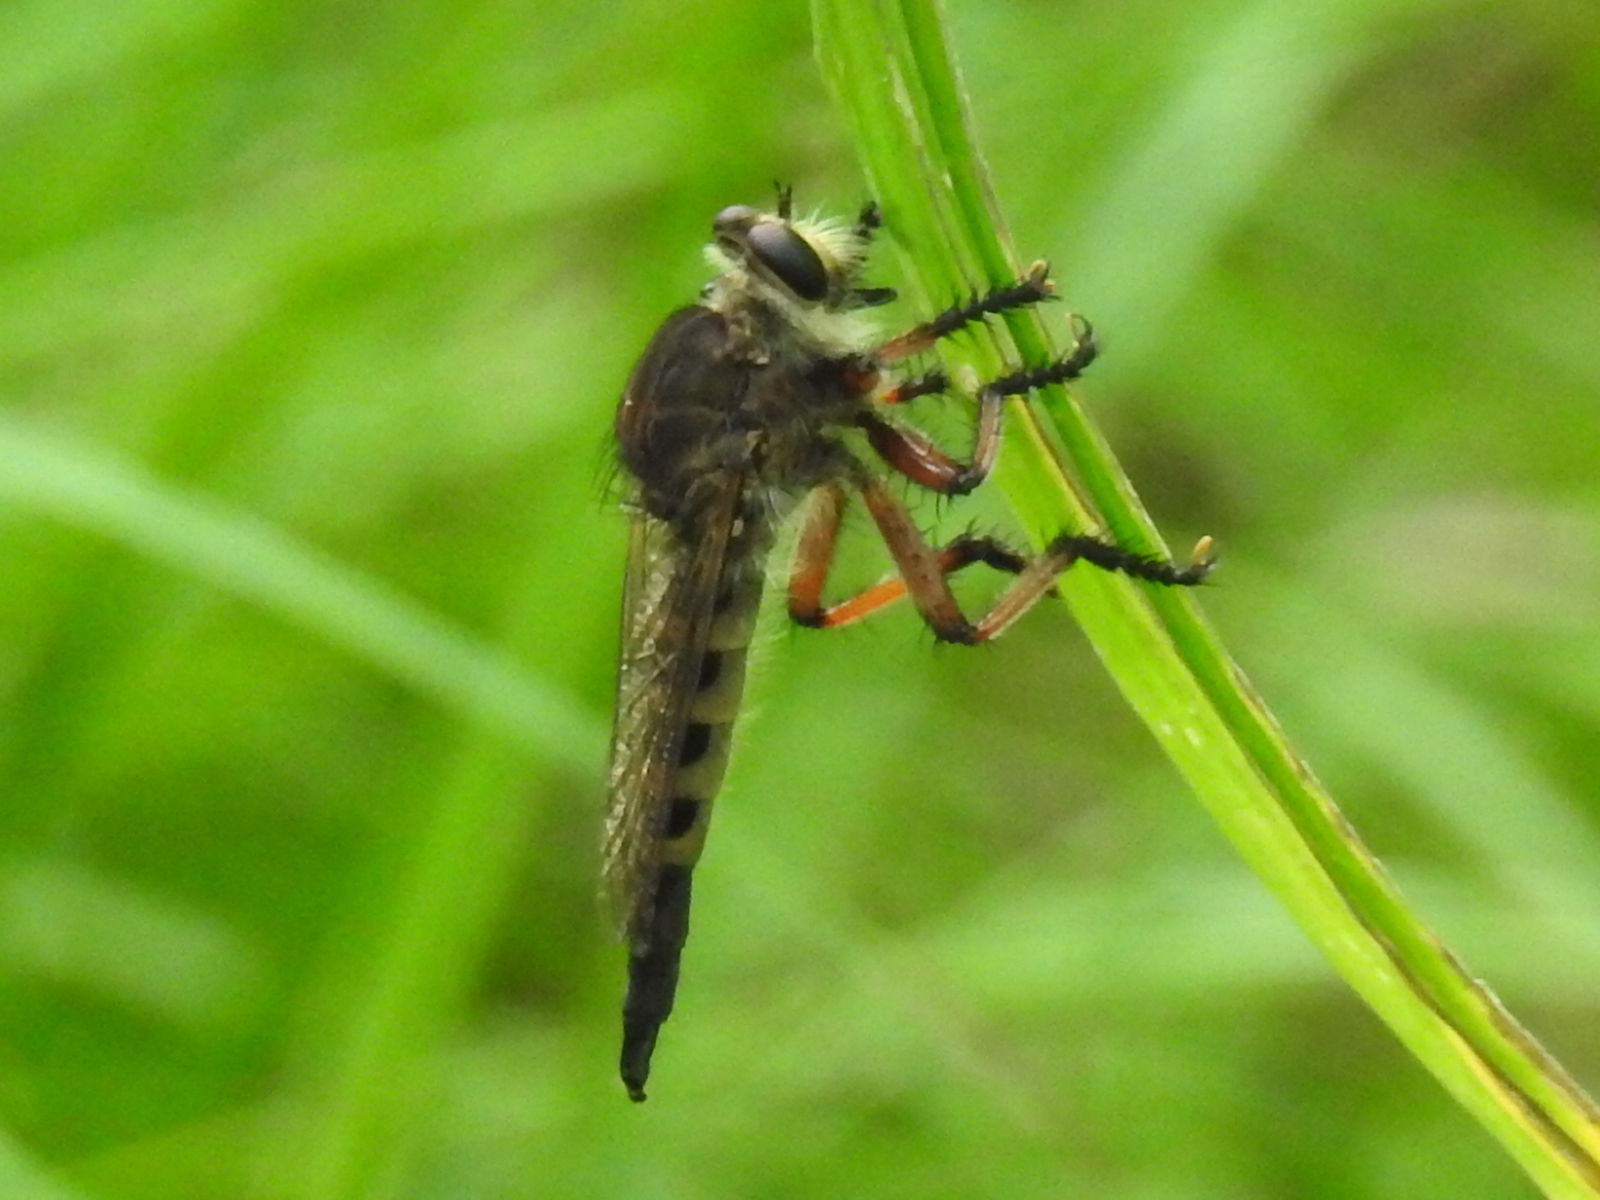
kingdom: Animalia
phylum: Arthropoda
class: Insecta
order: Diptera
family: Asilidae
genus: Promachus
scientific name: Promachus hinei
